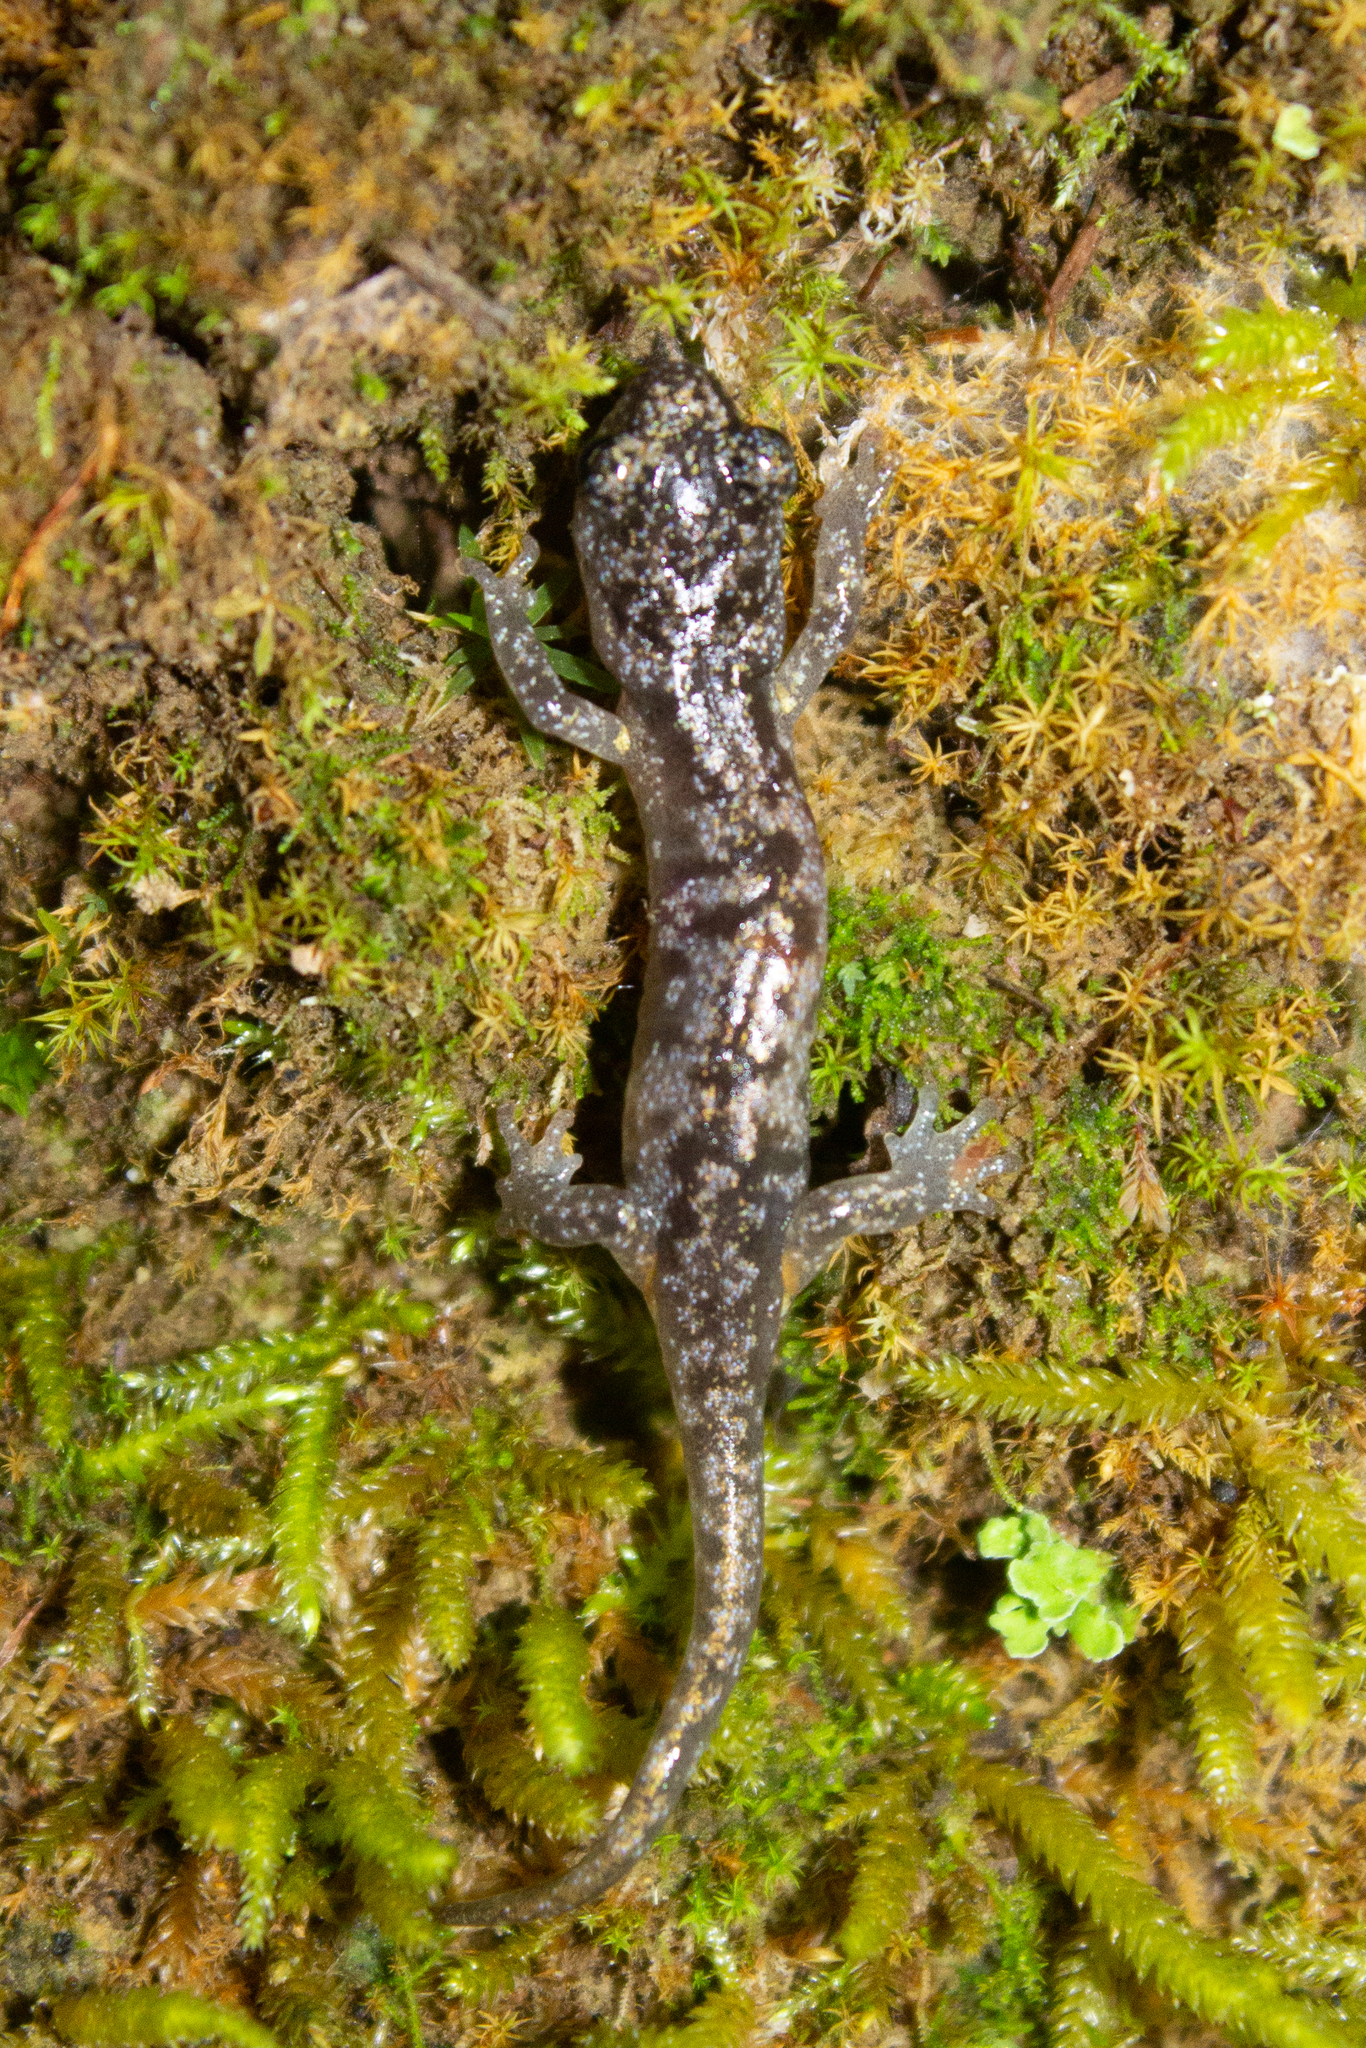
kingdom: Animalia
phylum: Chordata
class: Amphibia
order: Caudata
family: Plethodontidae
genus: Aneides
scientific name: Aneides lugubris
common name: Arboreal salamander
